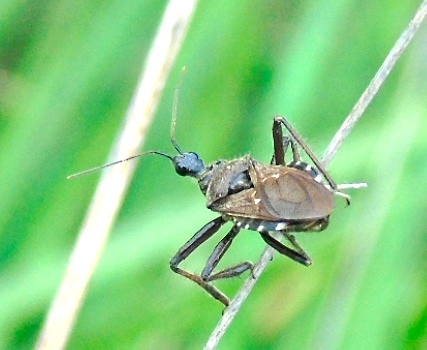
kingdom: Animalia
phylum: Arthropoda
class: Insecta
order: Hemiptera
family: Reduviidae
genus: Apiomerus
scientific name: Apiomerus longispinis
